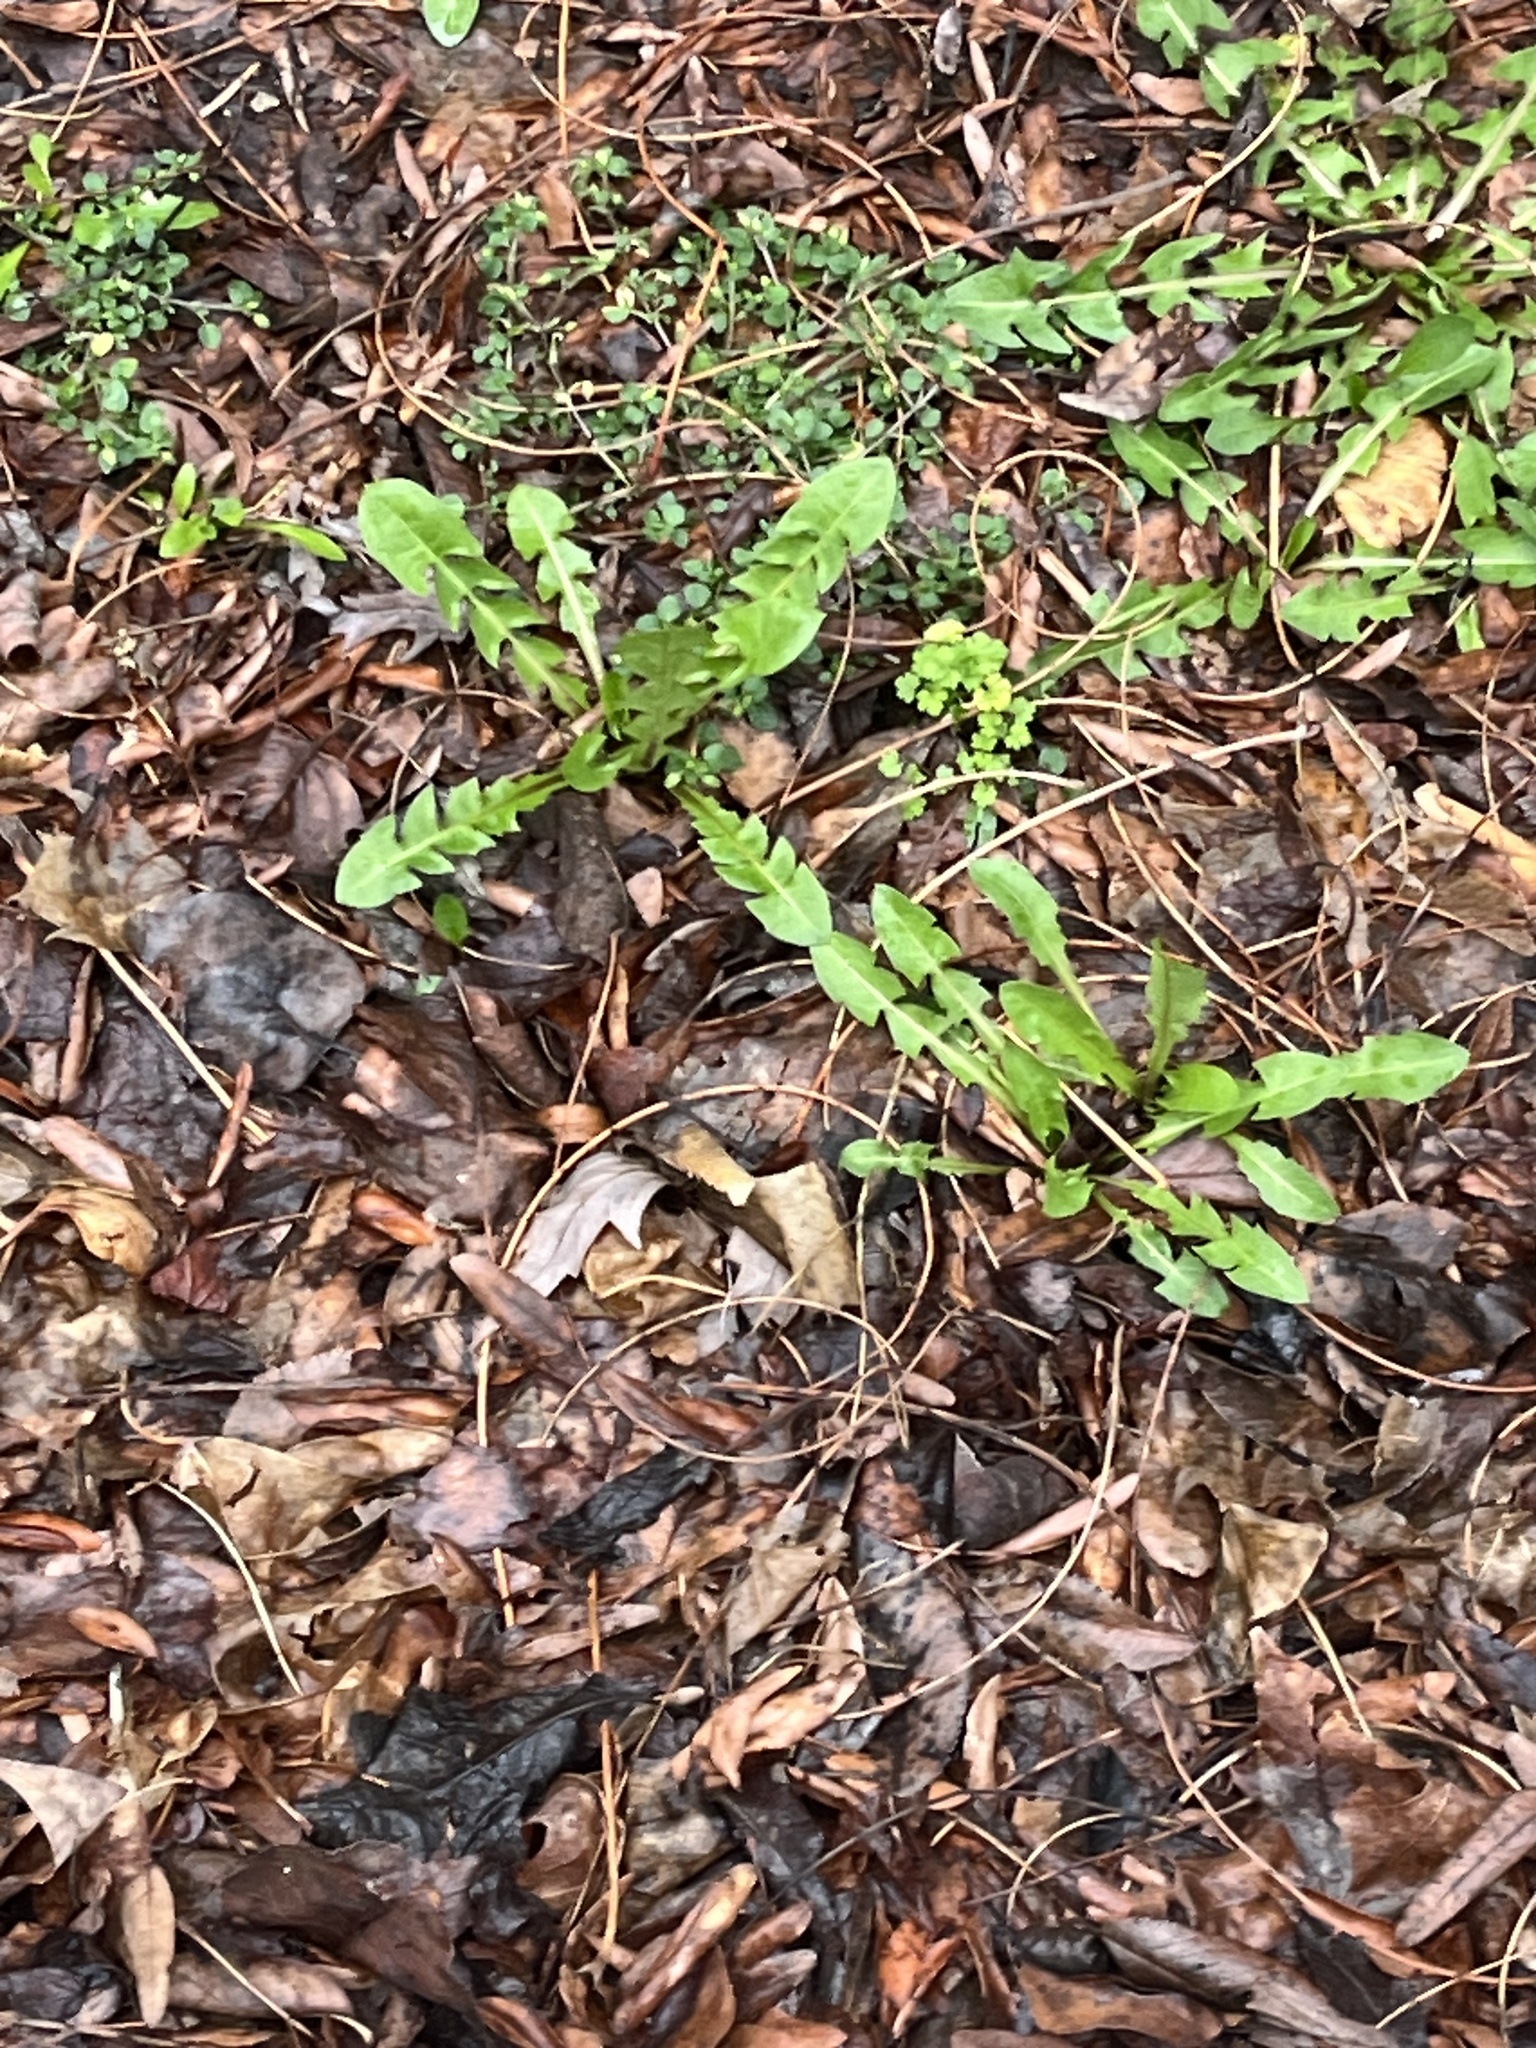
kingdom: Plantae
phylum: Tracheophyta
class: Magnoliopsida
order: Asterales
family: Asteraceae
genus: Taraxacum
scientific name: Taraxacum officinale
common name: Common dandelion
